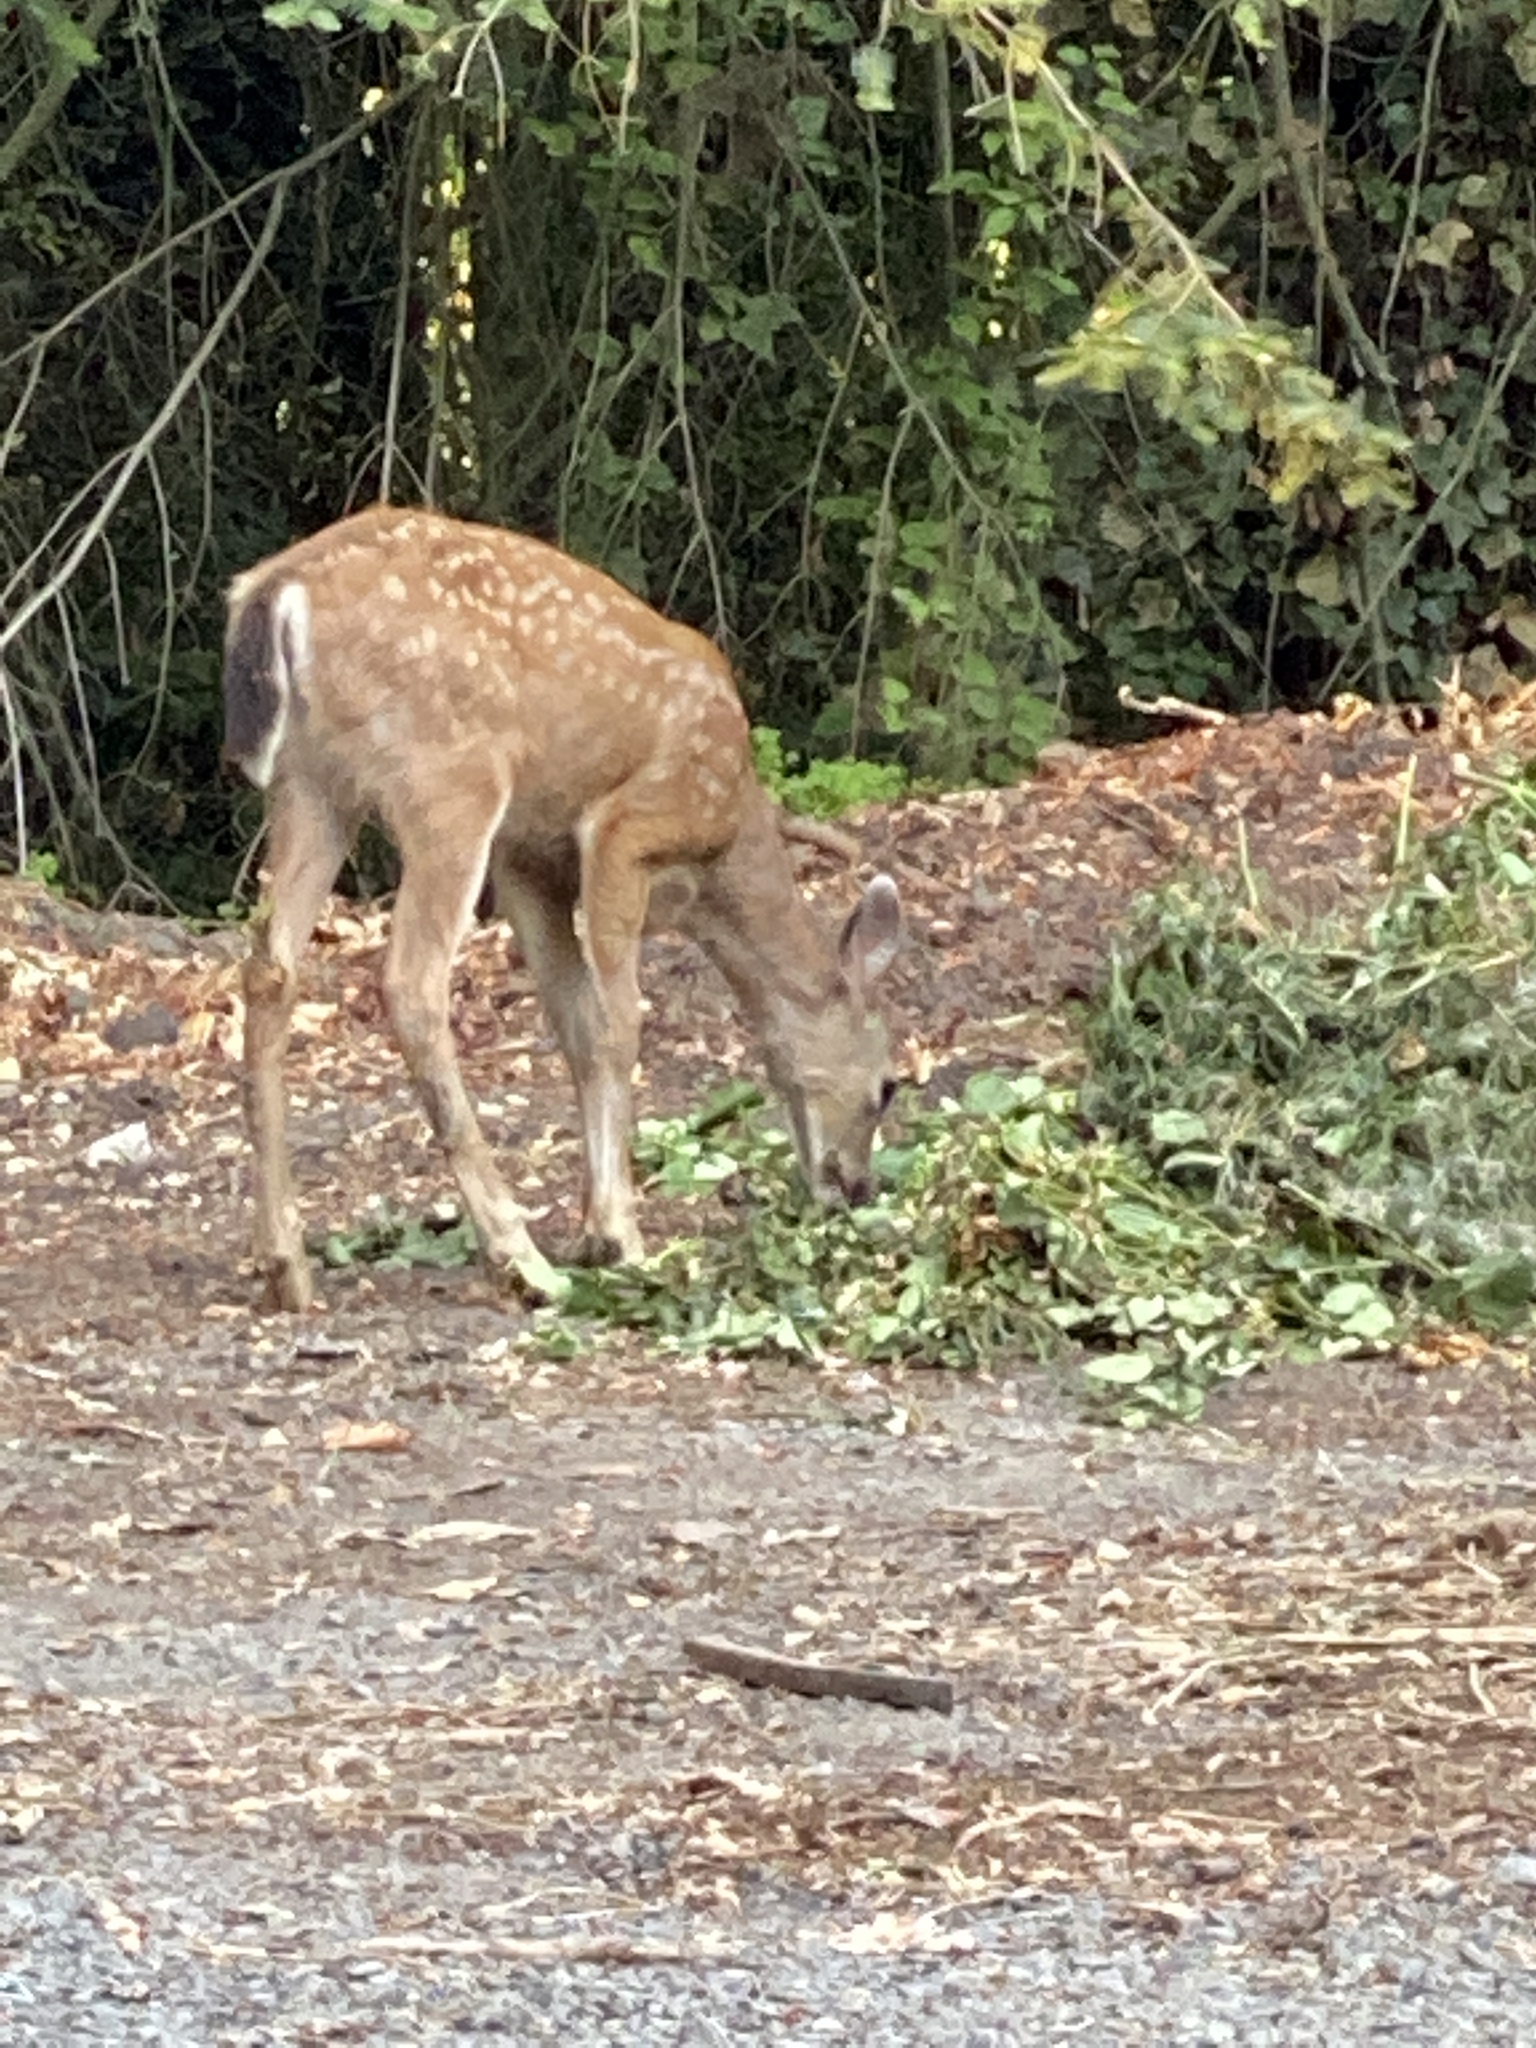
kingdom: Animalia
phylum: Chordata
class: Mammalia
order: Artiodactyla
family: Cervidae
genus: Odocoileus
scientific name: Odocoileus hemionus
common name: Mule deer
